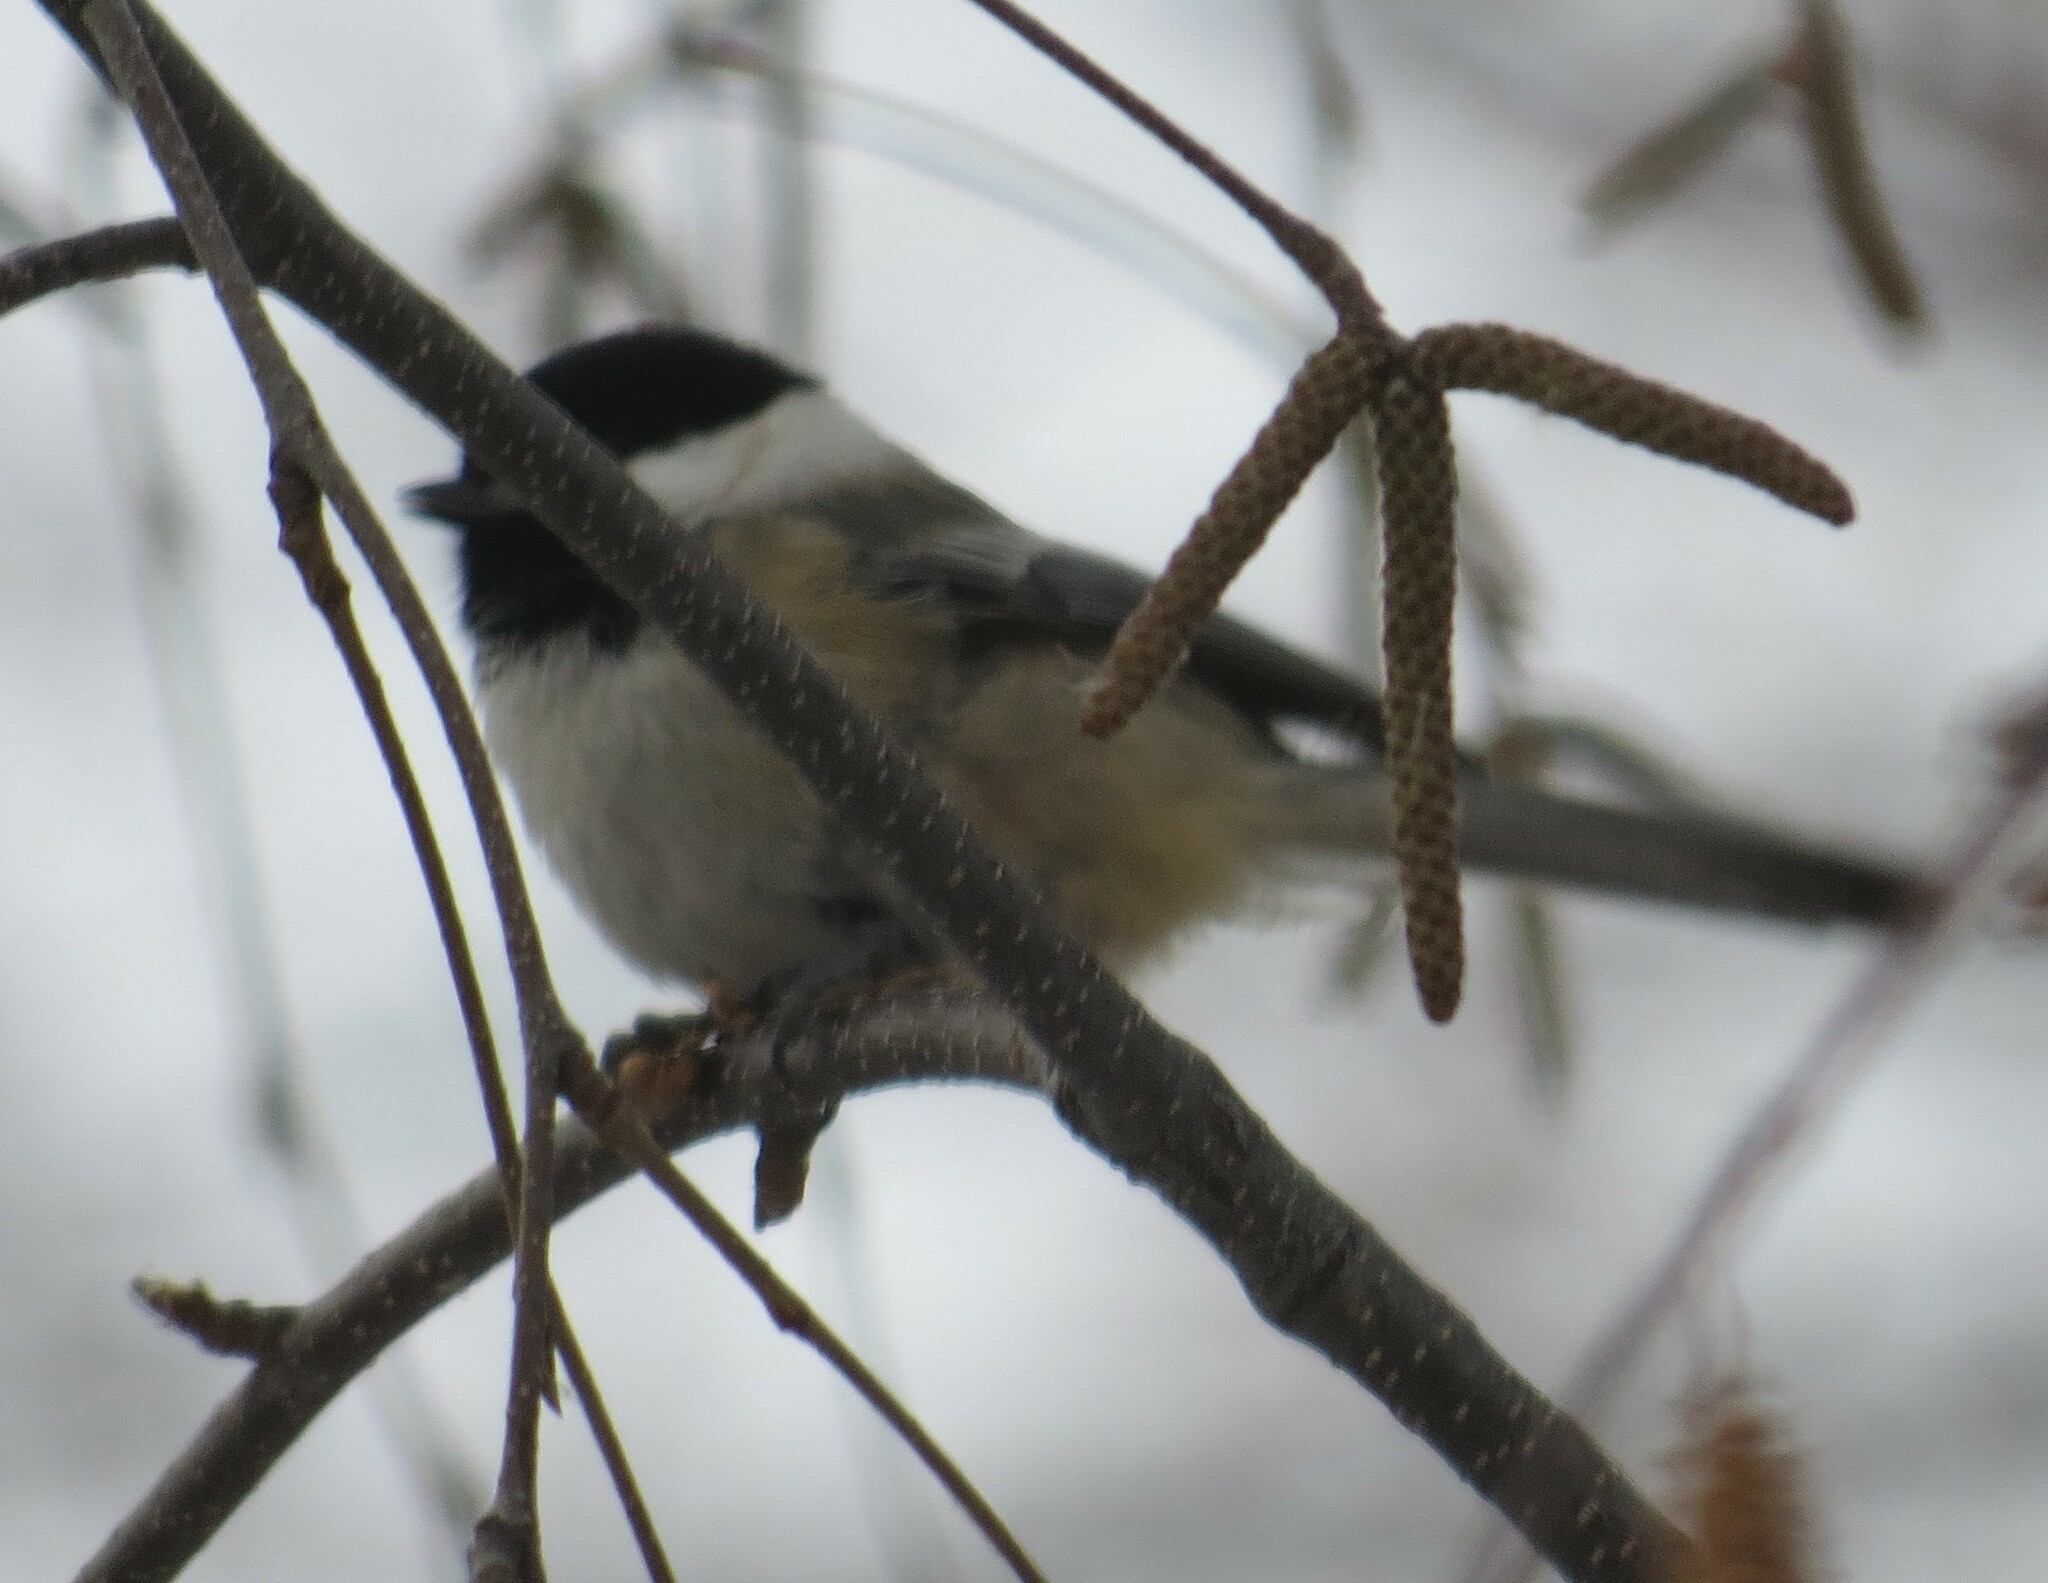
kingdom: Animalia
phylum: Chordata
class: Aves
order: Passeriformes
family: Paridae
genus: Poecile
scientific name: Poecile atricapillus
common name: Black-capped chickadee
